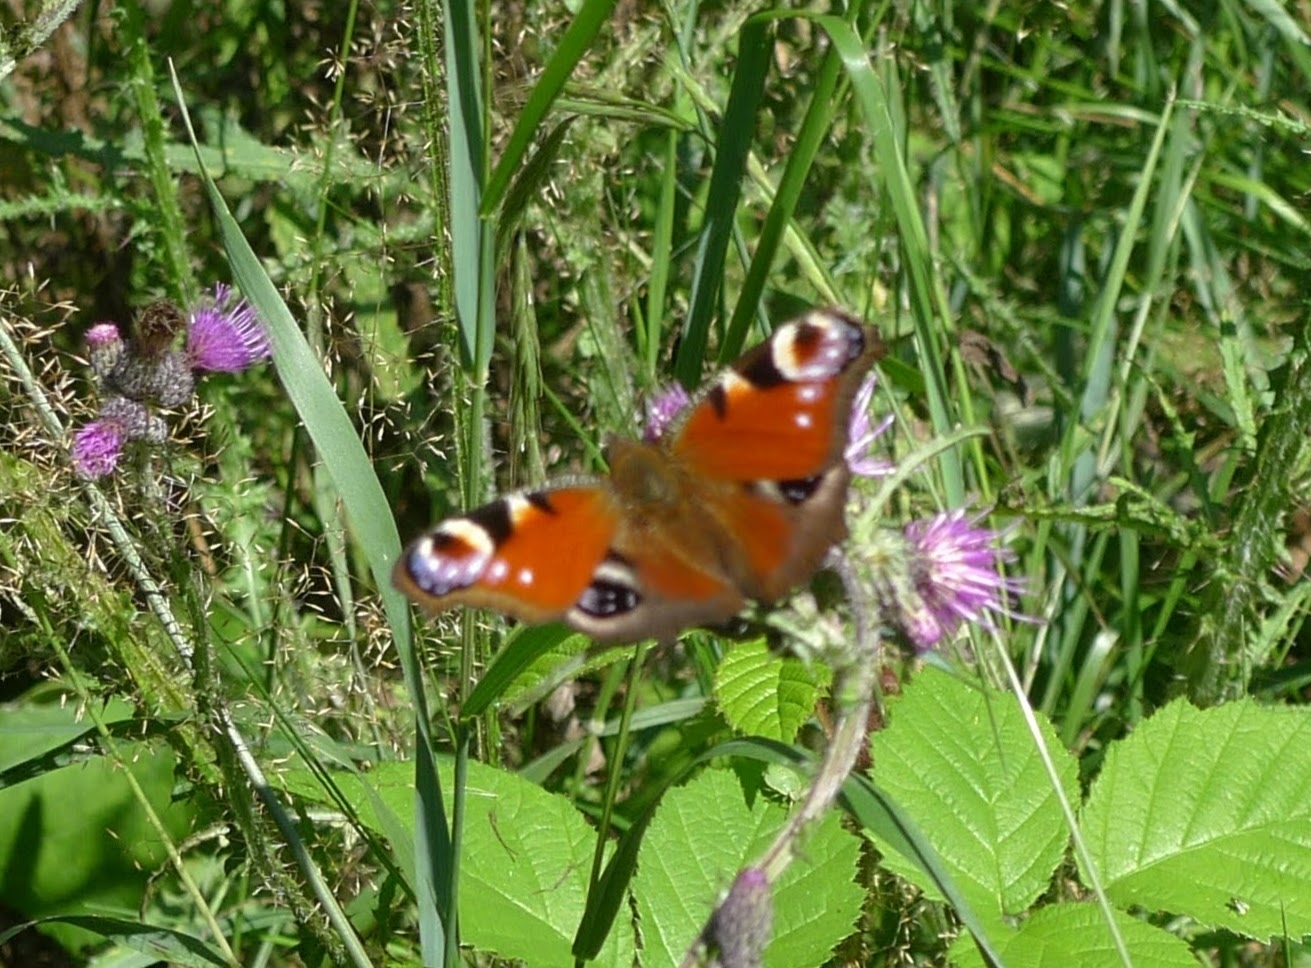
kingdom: Animalia
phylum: Arthropoda
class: Insecta
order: Lepidoptera
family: Nymphalidae
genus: Aglais
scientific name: Aglais io
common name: Peacock
